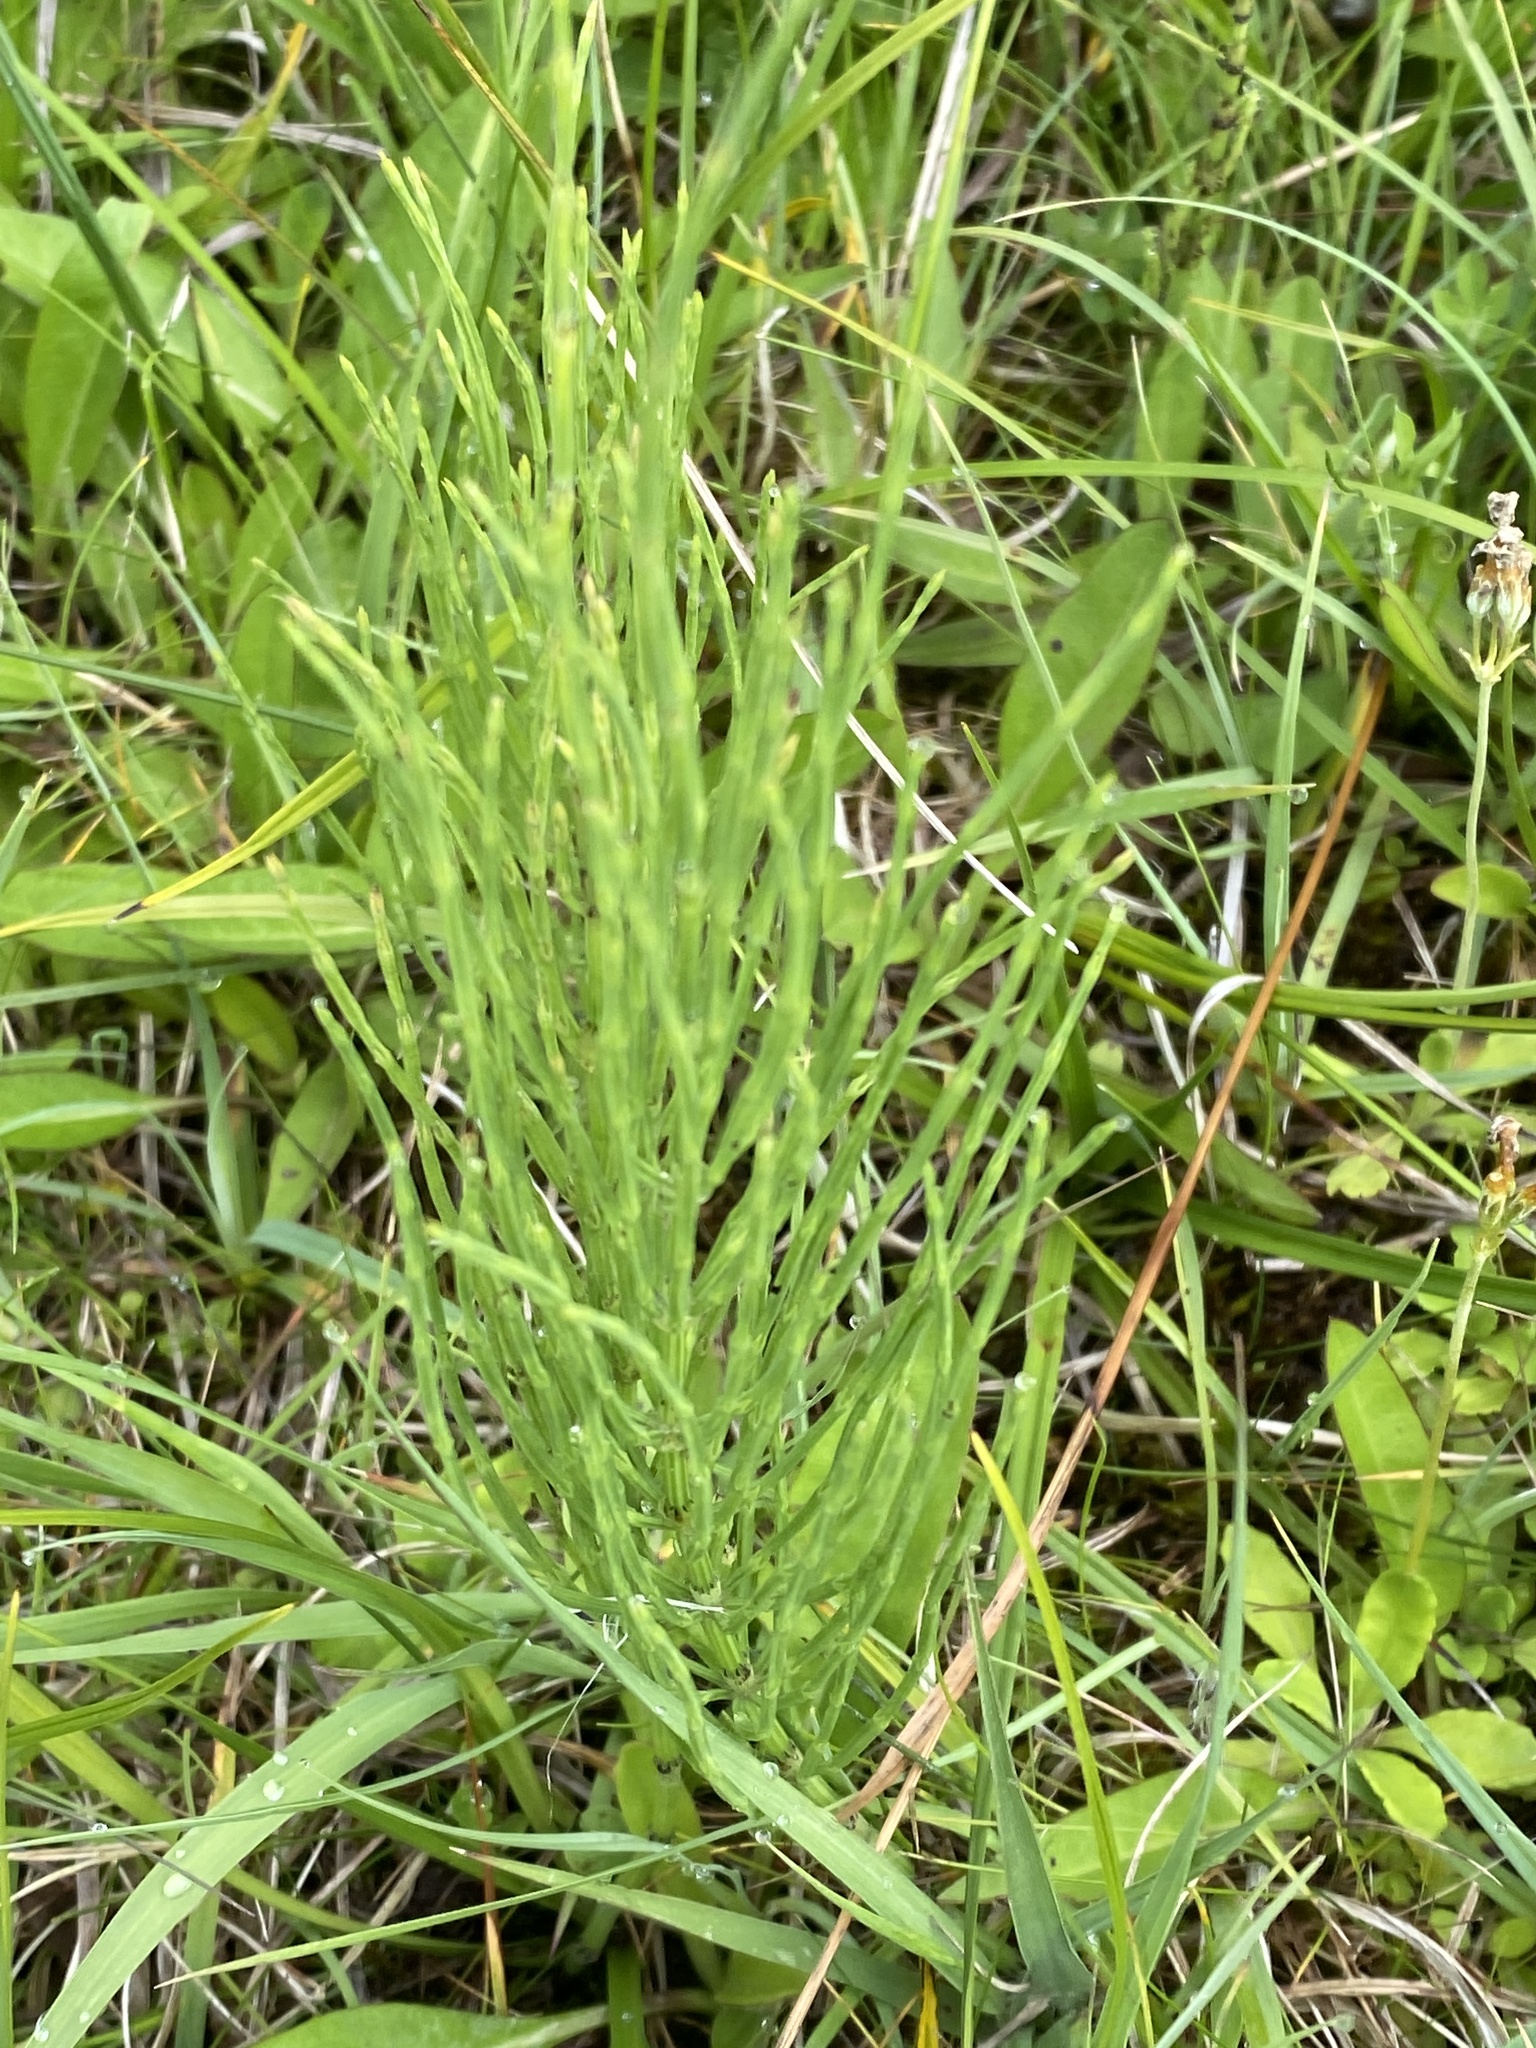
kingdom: Plantae
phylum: Tracheophyta
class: Polypodiopsida
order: Equisetales
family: Equisetaceae
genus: Equisetum
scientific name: Equisetum arvense
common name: Field horsetail
